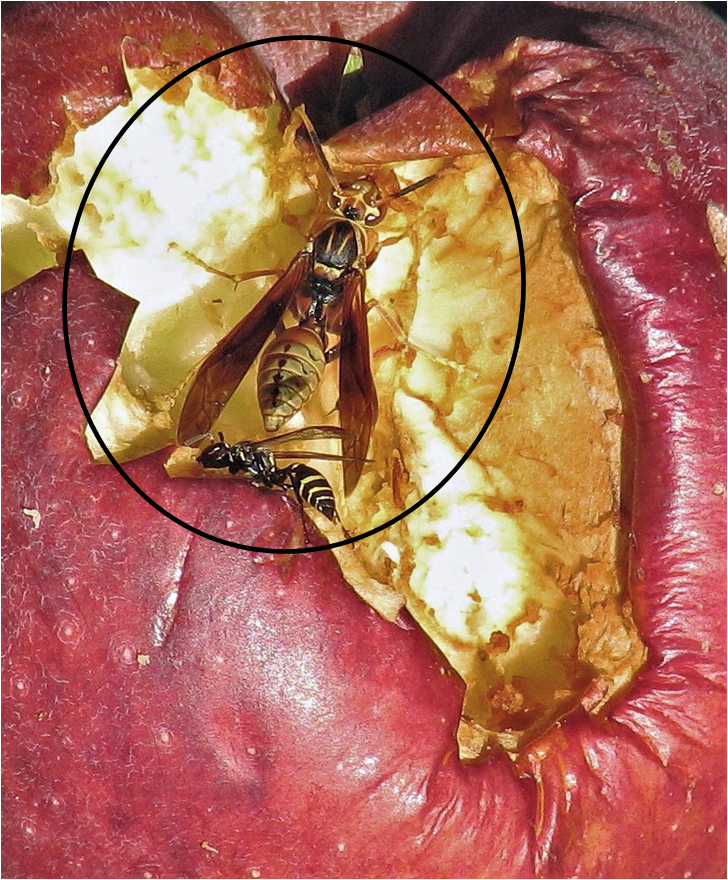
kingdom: Animalia
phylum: Arthropoda
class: Insecta
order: Hymenoptera
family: Eumenidae
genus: Polistes
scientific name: Polistes buyssoni
